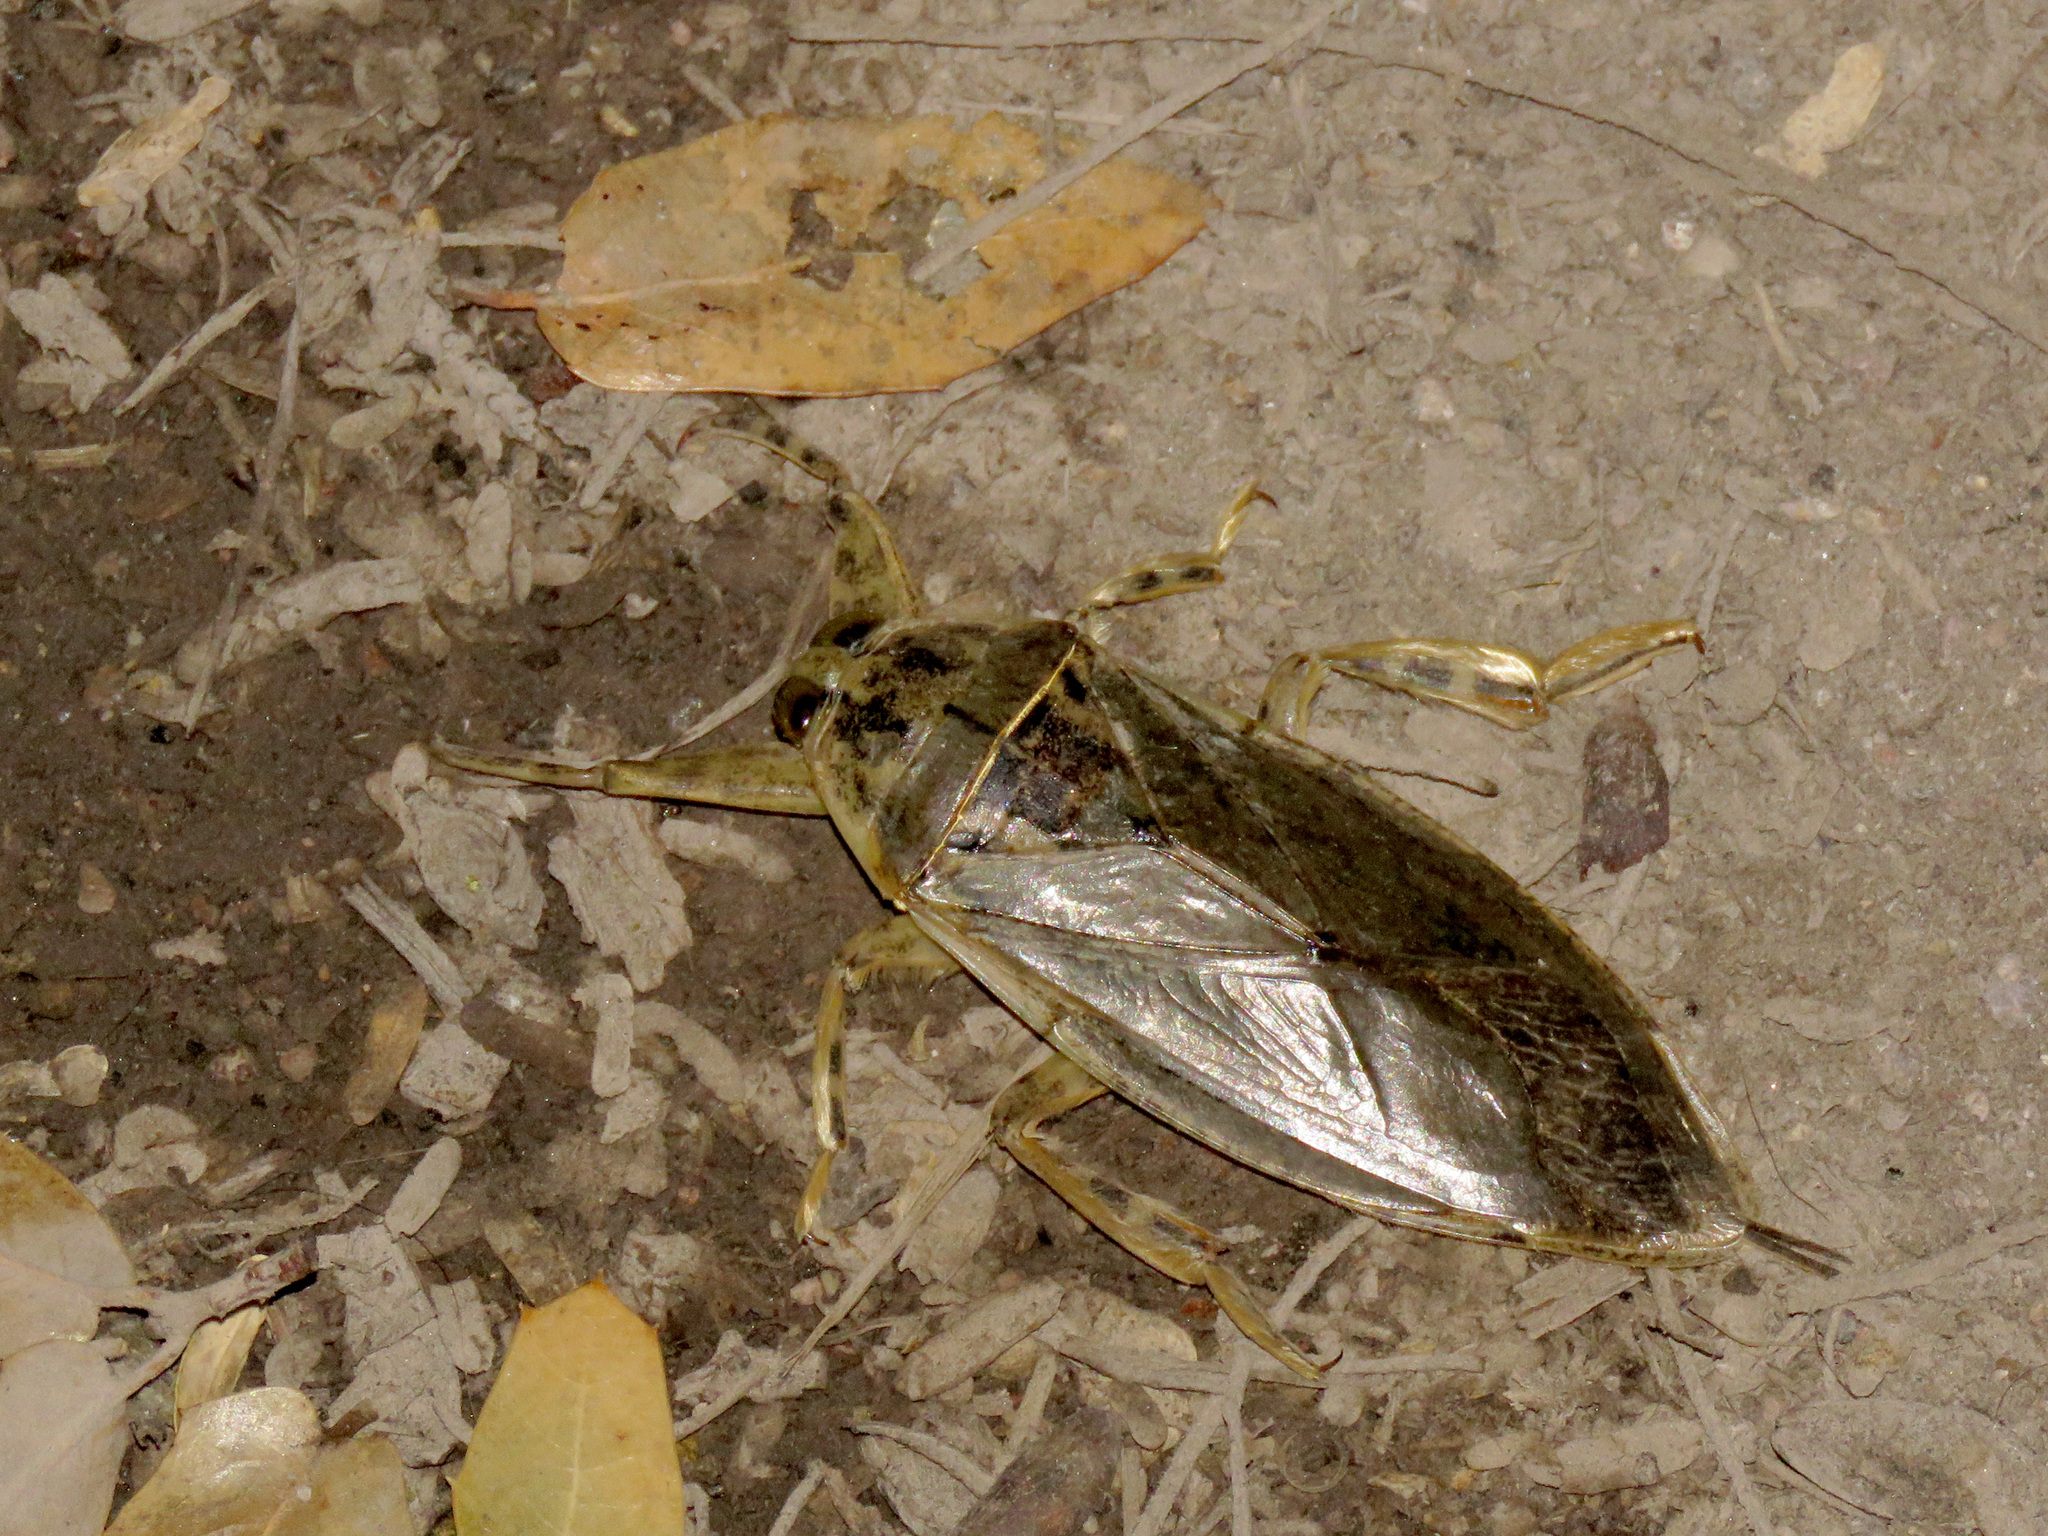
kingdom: Animalia
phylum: Arthropoda
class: Insecta
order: Hemiptera
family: Belostomatidae
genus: Lethocerus
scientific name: Lethocerus medius
